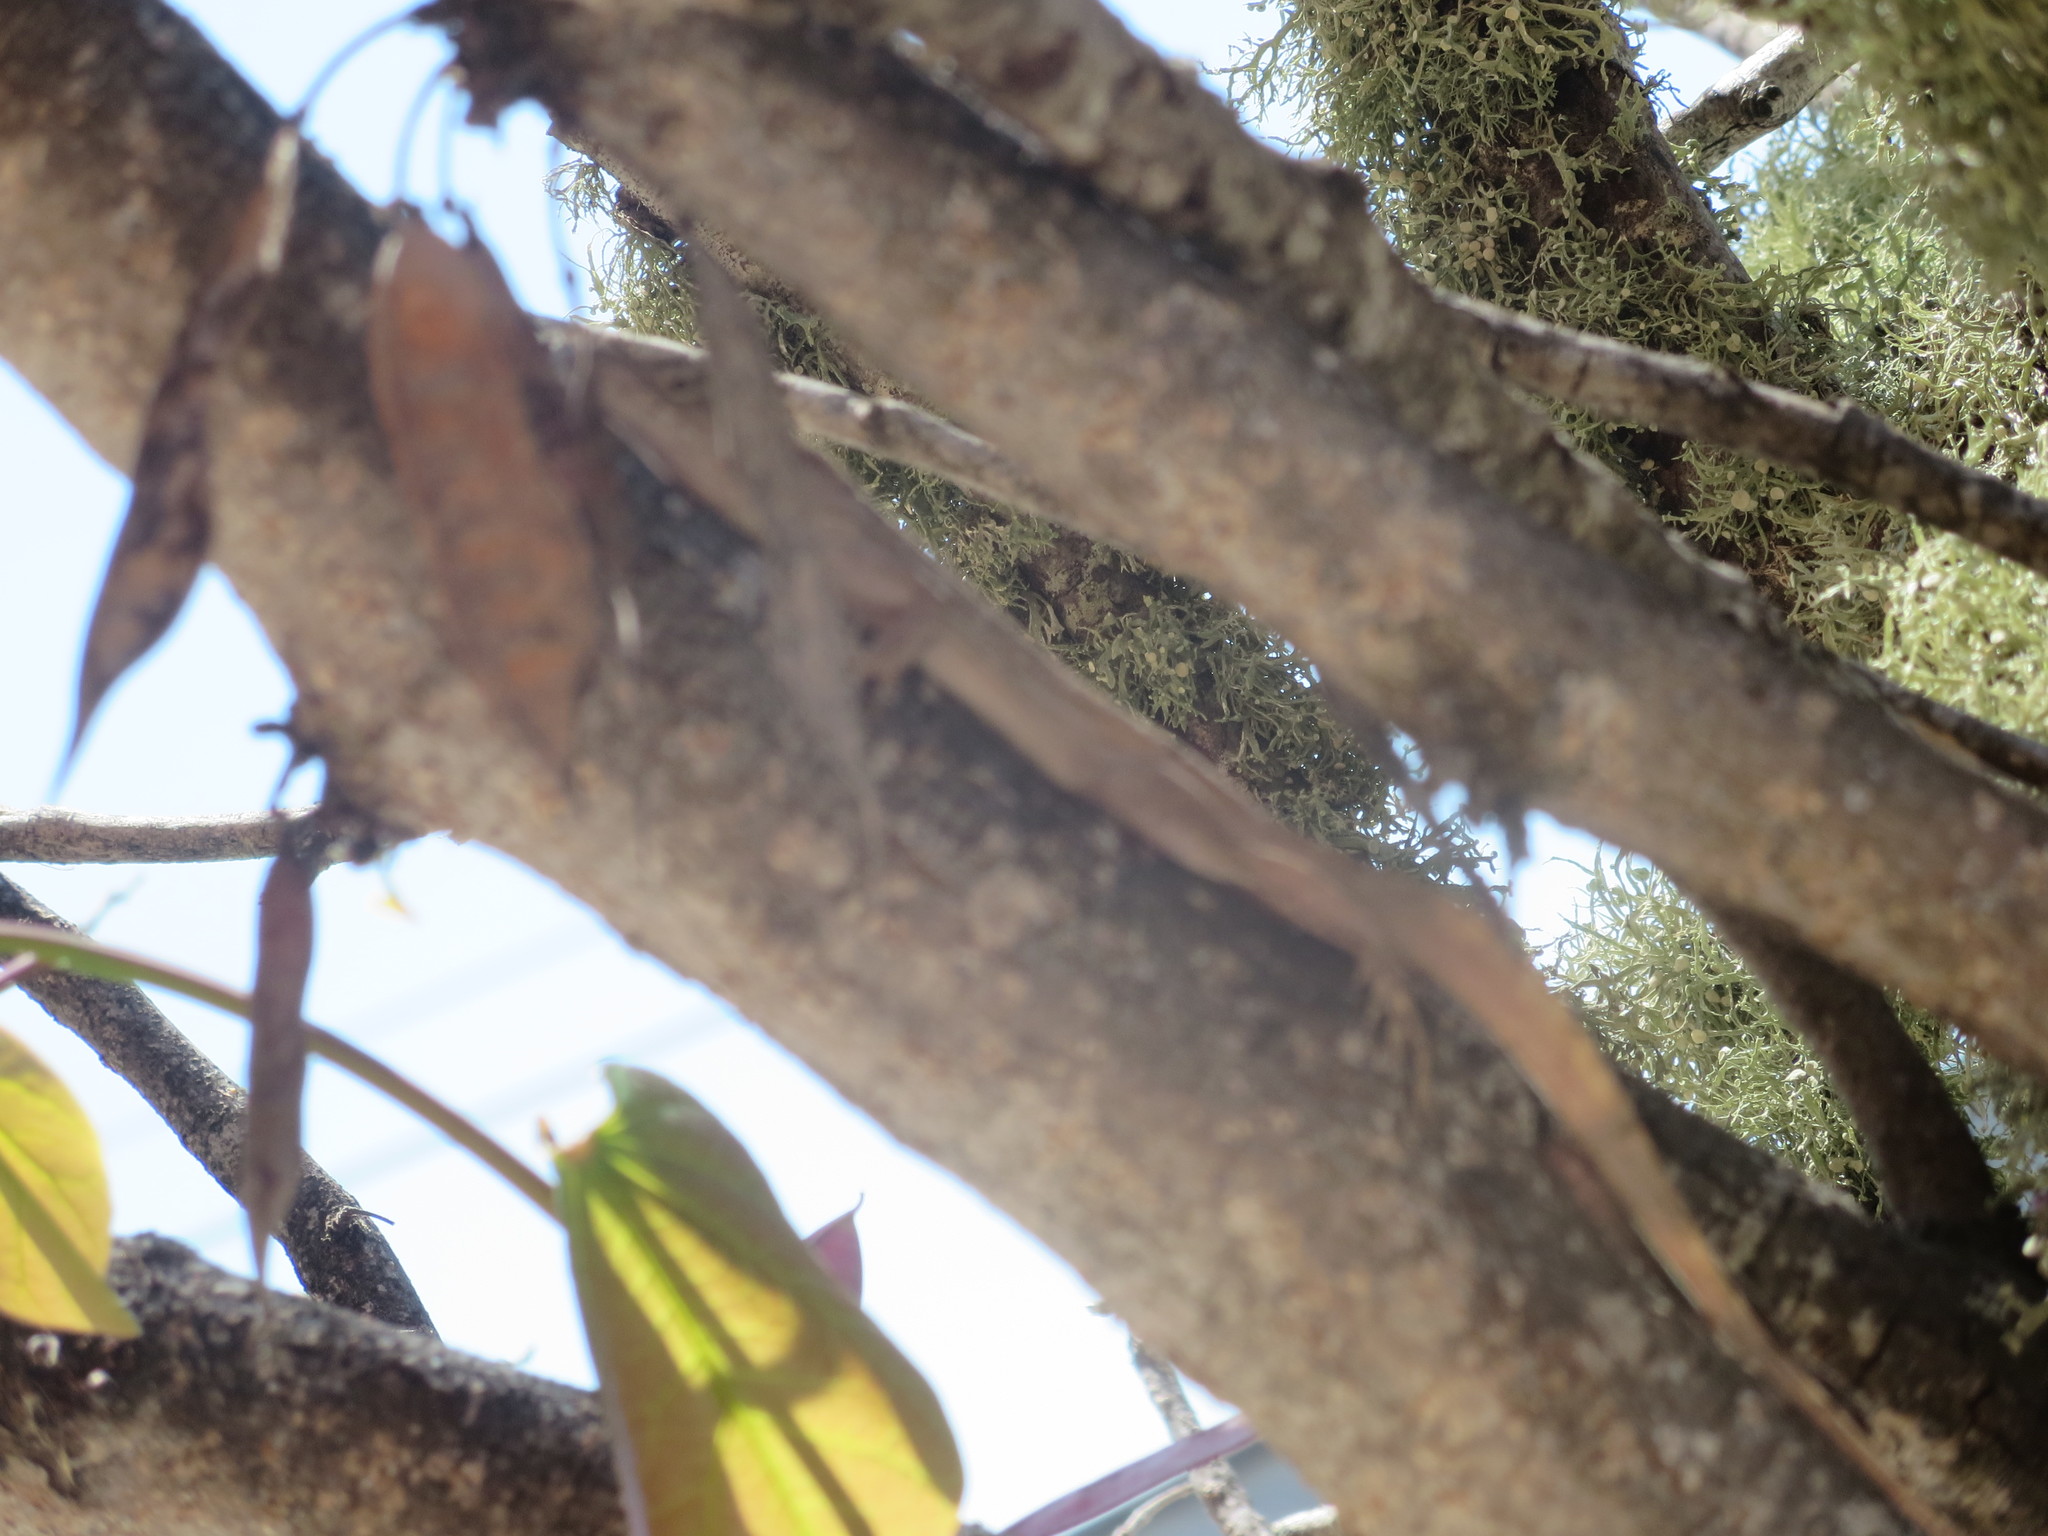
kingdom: Animalia
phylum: Chordata
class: Squamata
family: Dactyloidae
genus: Anolis
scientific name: Anolis sagrei
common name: Brown anole
